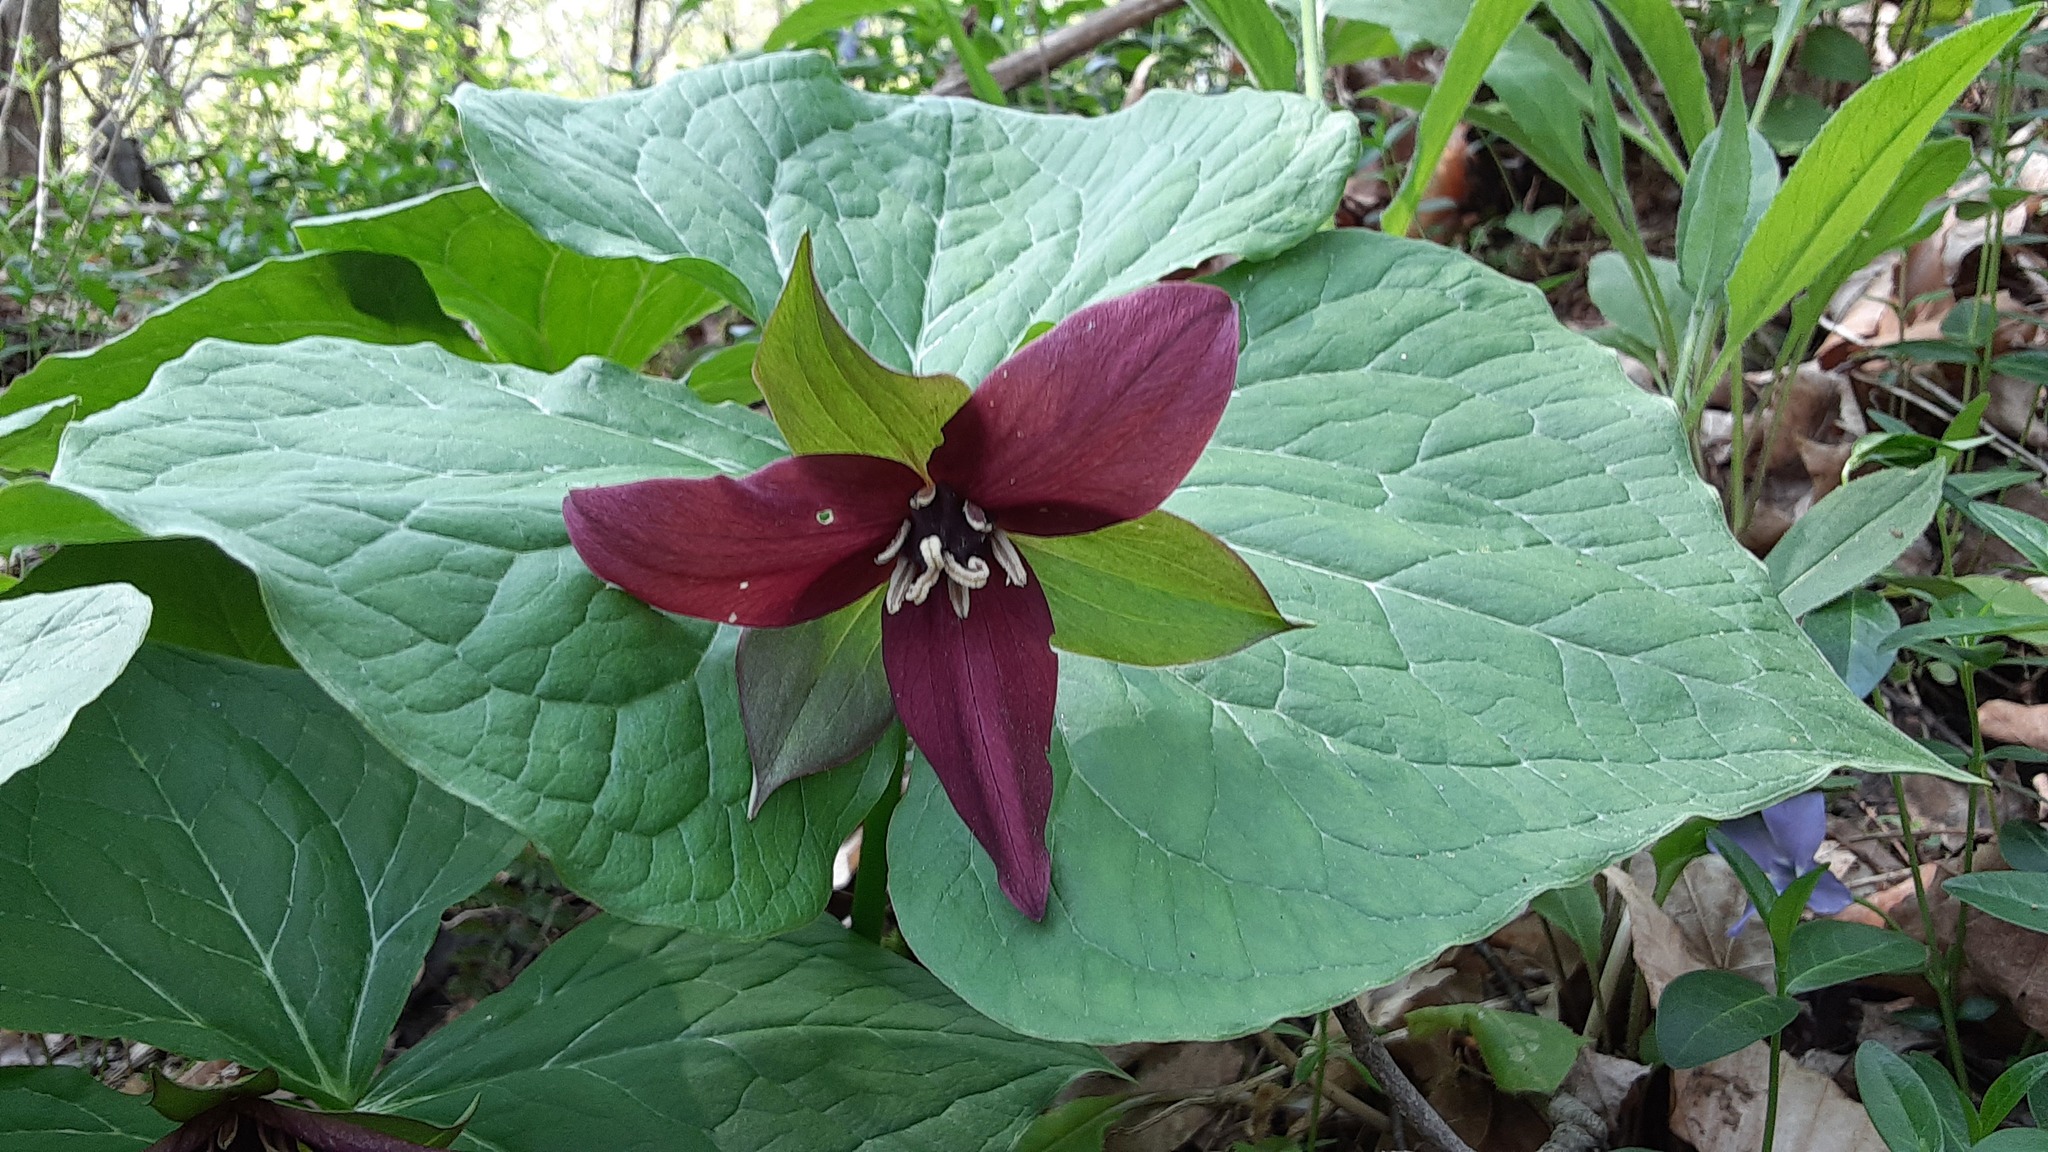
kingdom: Plantae
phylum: Tracheophyta
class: Liliopsida
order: Liliales
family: Melanthiaceae
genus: Trillium
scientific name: Trillium erectum
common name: Purple trillium
